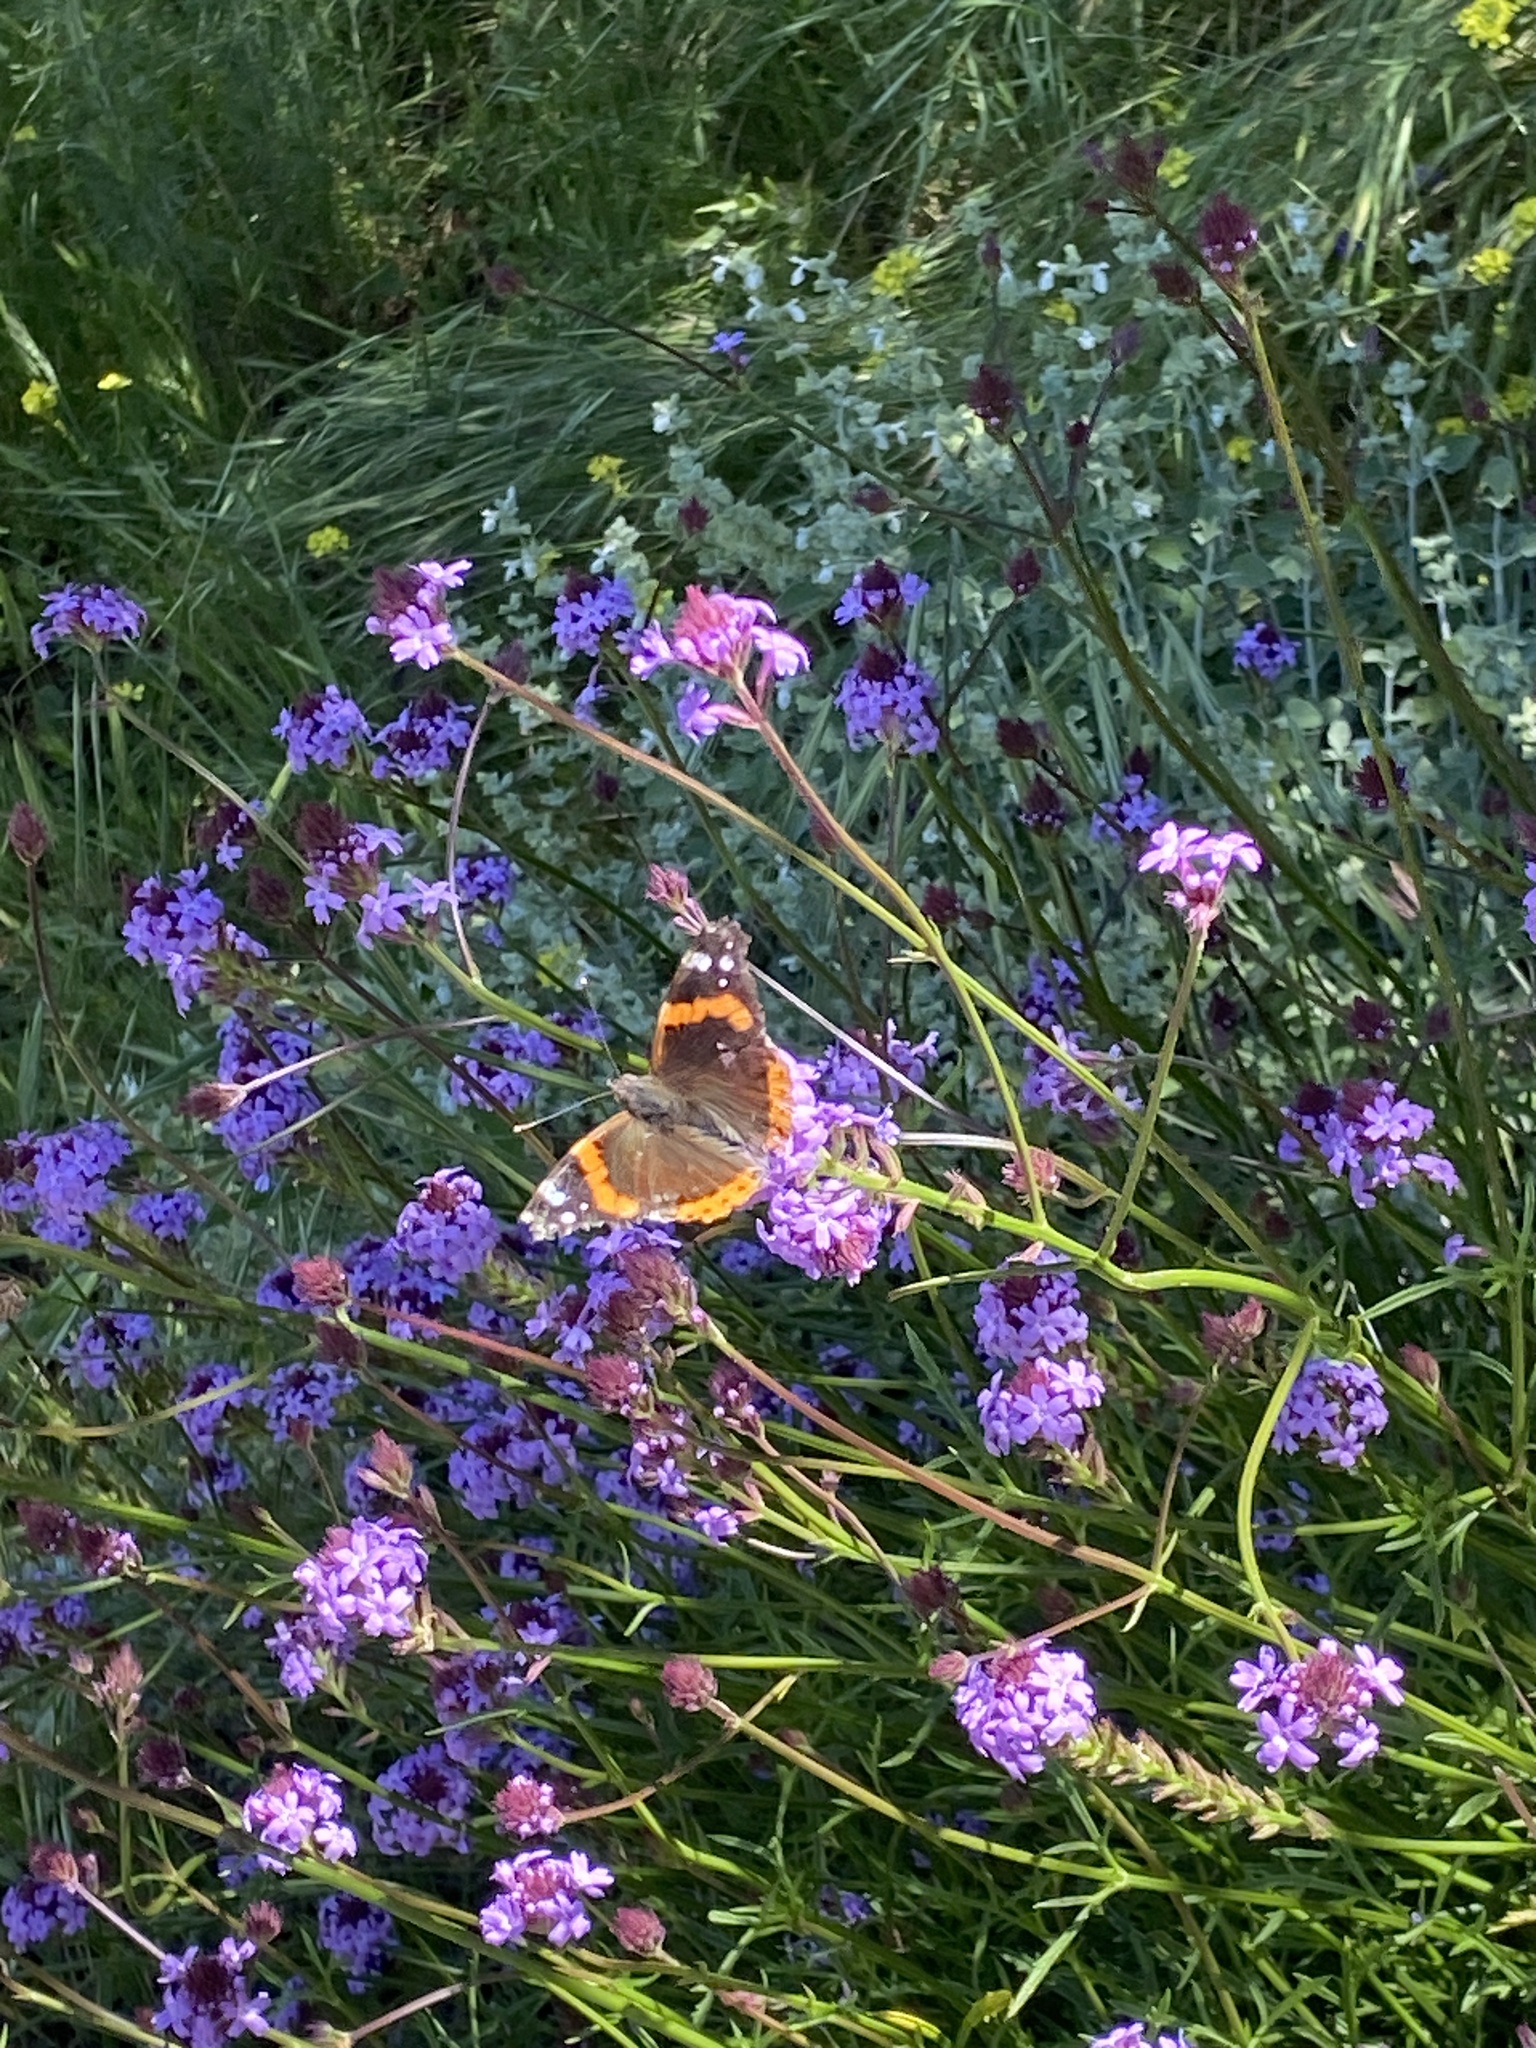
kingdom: Animalia
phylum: Arthropoda
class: Insecta
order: Lepidoptera
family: Nymphalidae
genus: Vanessa
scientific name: Vanessa atalanta
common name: Red admiral
